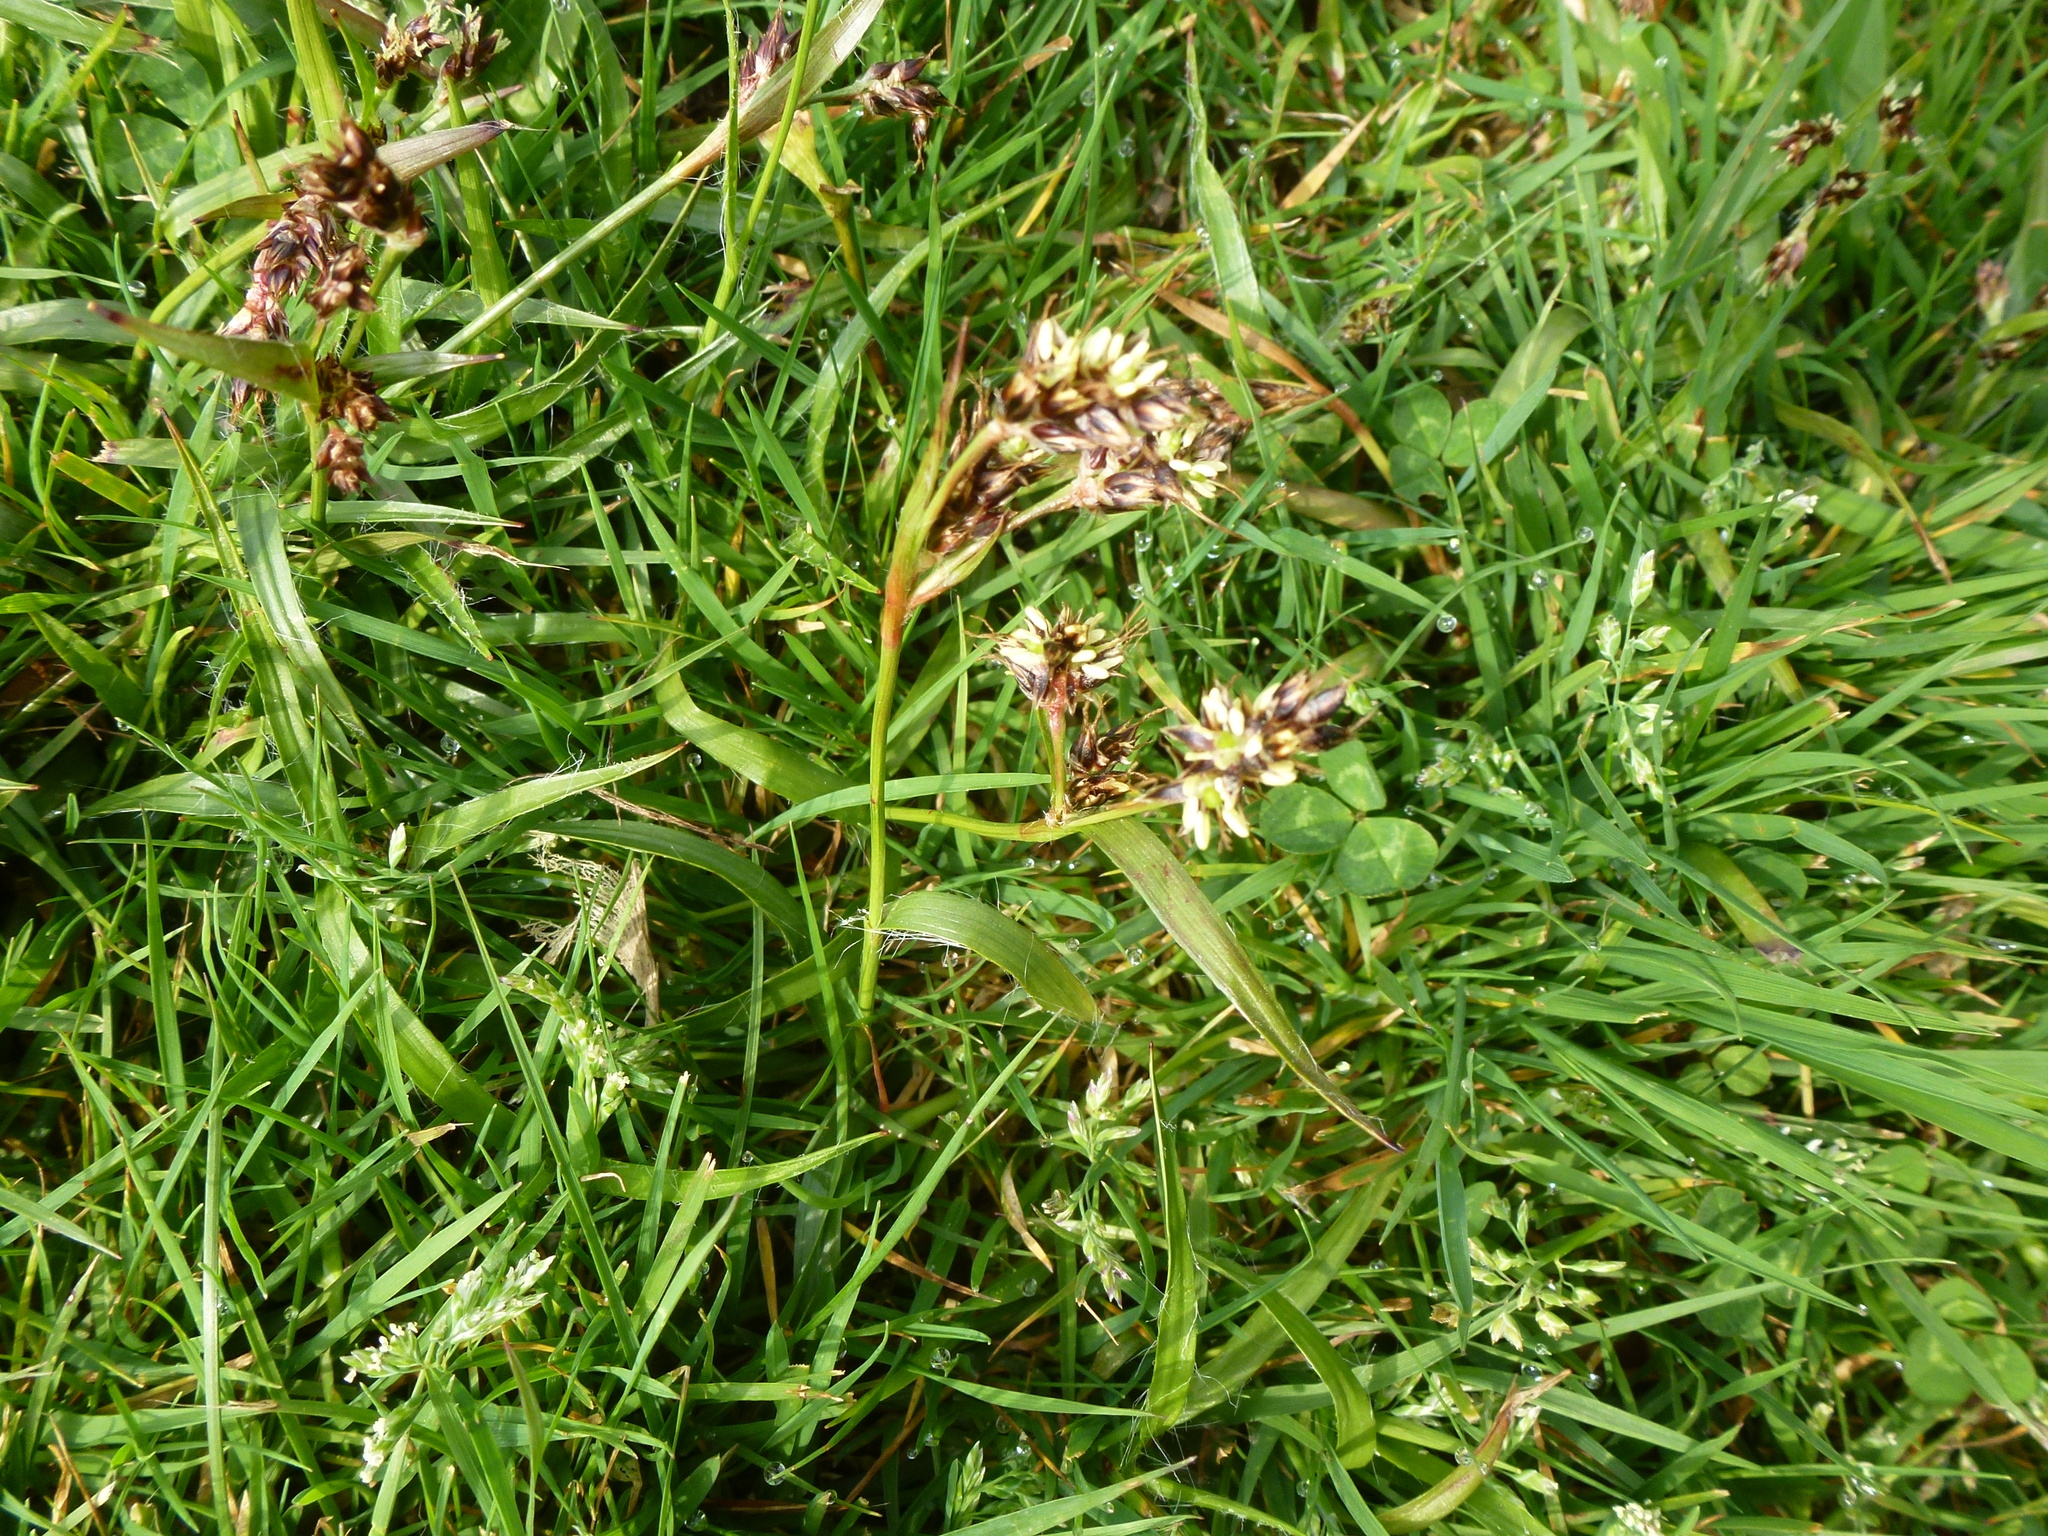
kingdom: Plantae
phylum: Tracheophyta
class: Liliopsida
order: Poales
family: Juncaceae
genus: Luzula
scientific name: Luzula campestris
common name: Field wood-rush
